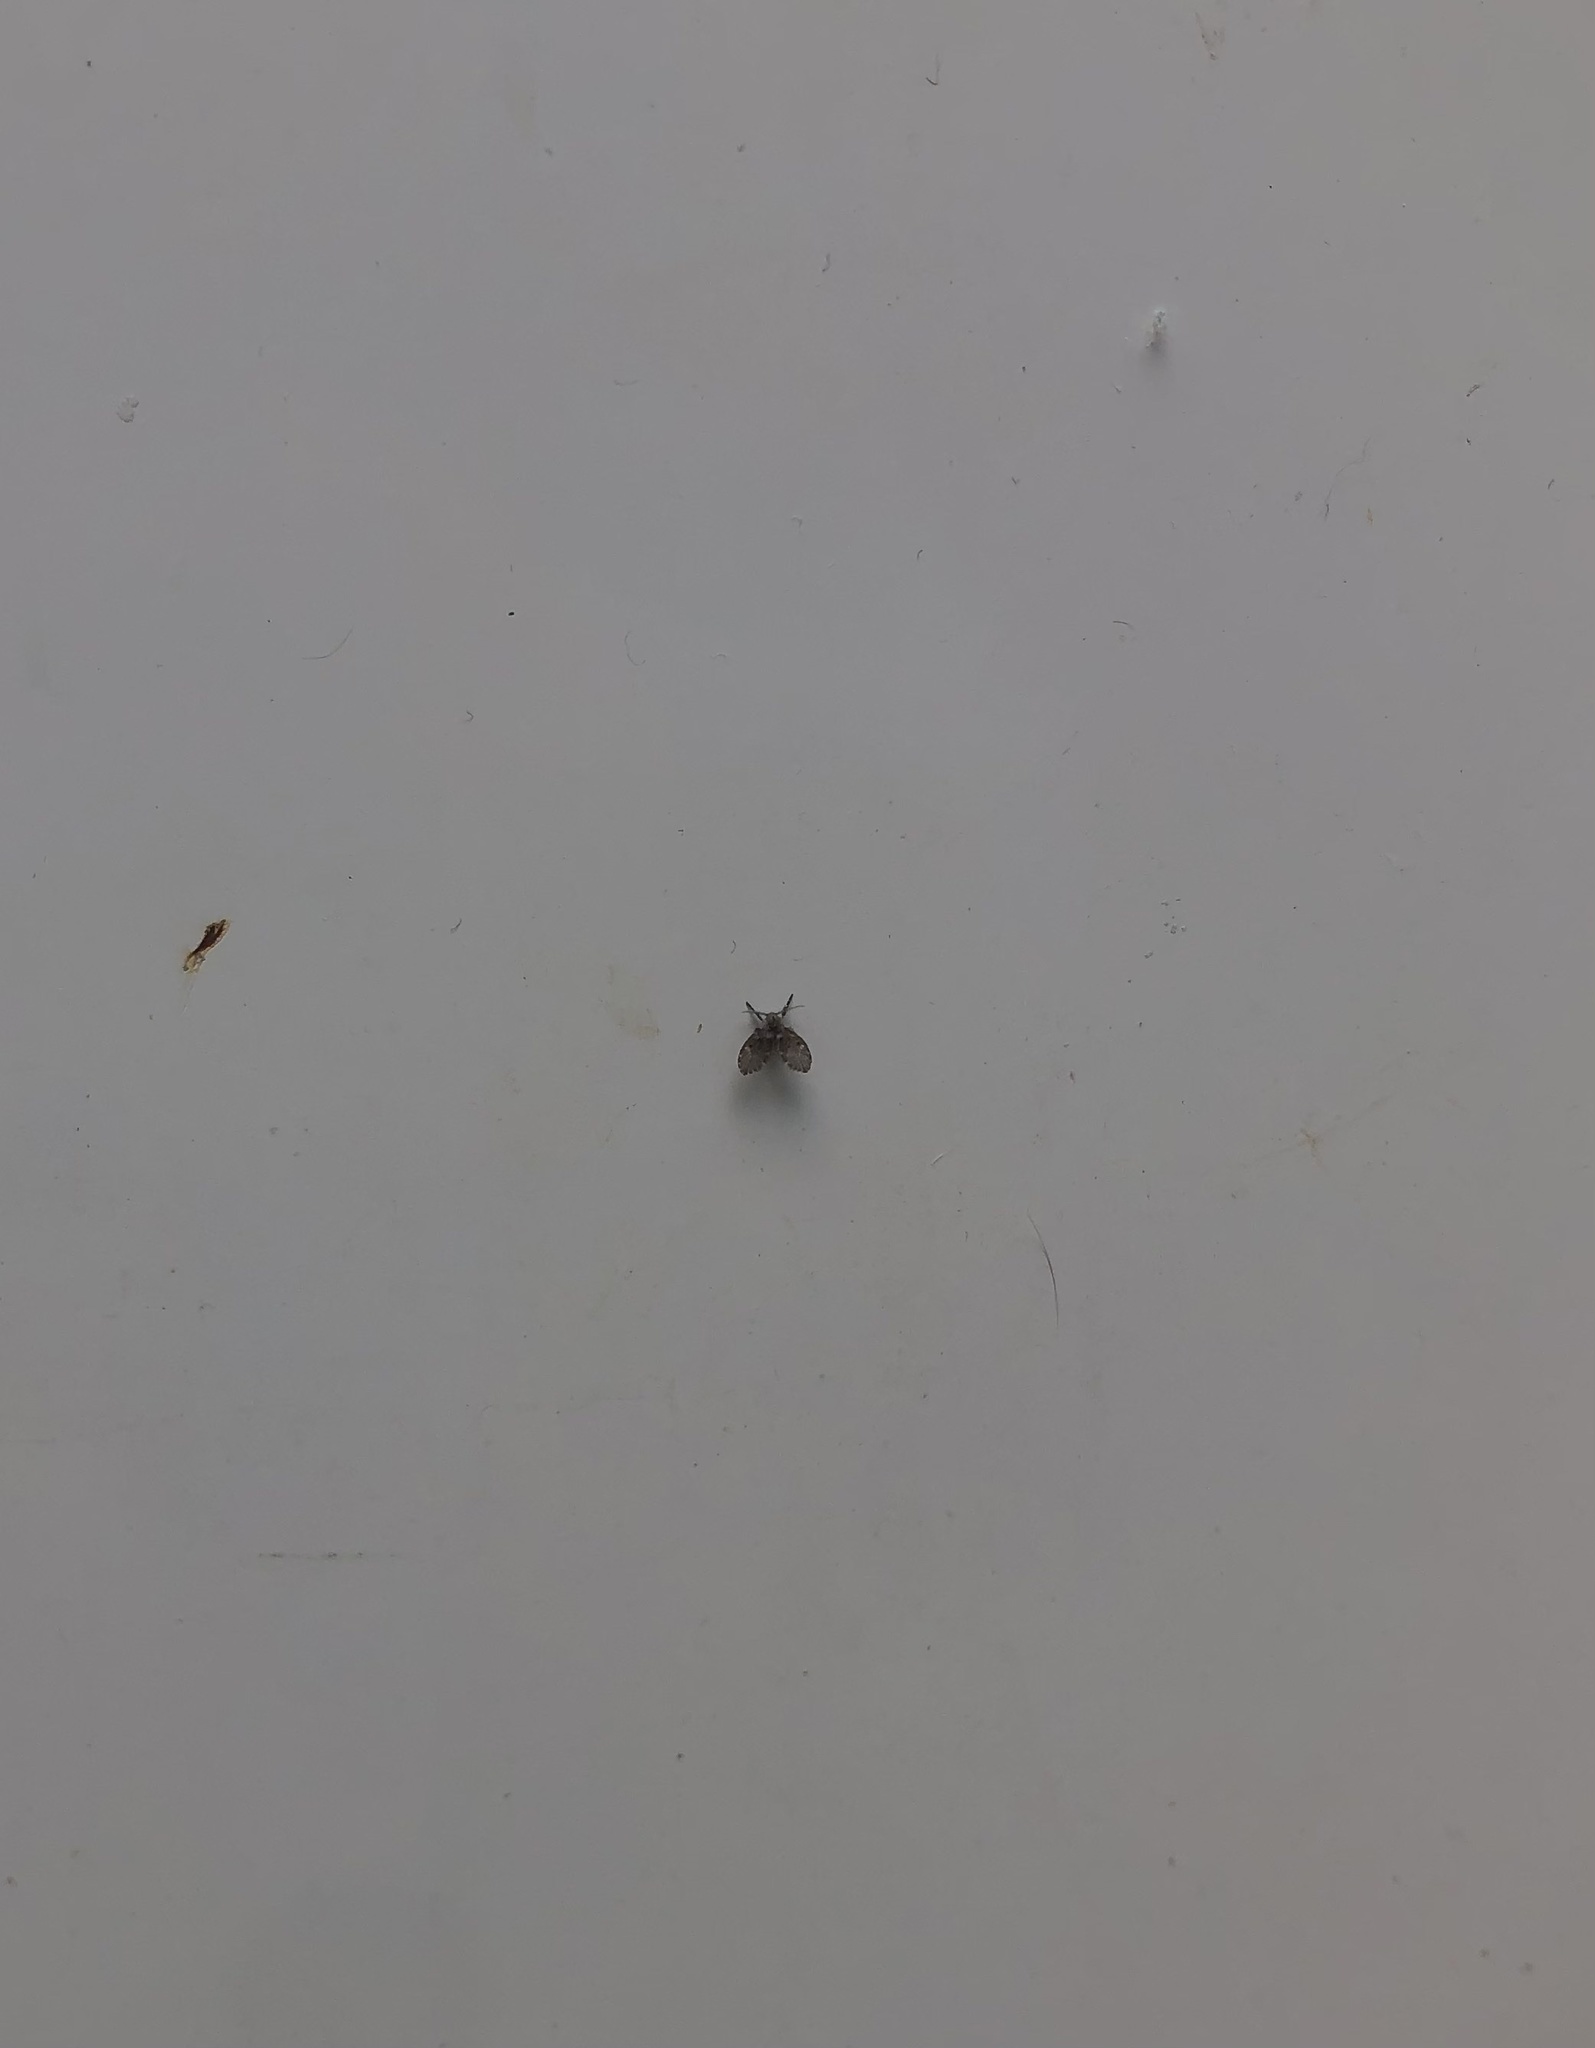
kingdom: Animalia
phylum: Arthropoda
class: Insecta
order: Diptera
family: Psychodidae
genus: Clogmia
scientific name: Clogmia albipunctatus
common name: White-spotted moth fly
